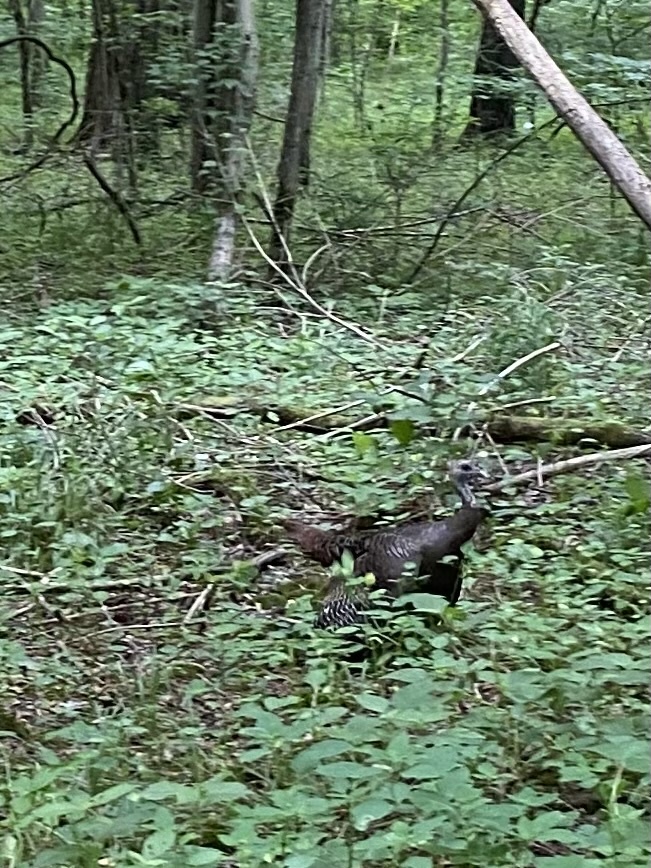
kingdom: Animalia
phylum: Chordata
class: Aves
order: Galliformes
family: Phasianidae
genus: Meleagris
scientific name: Meleagris gallopavo
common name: Wild turkey
